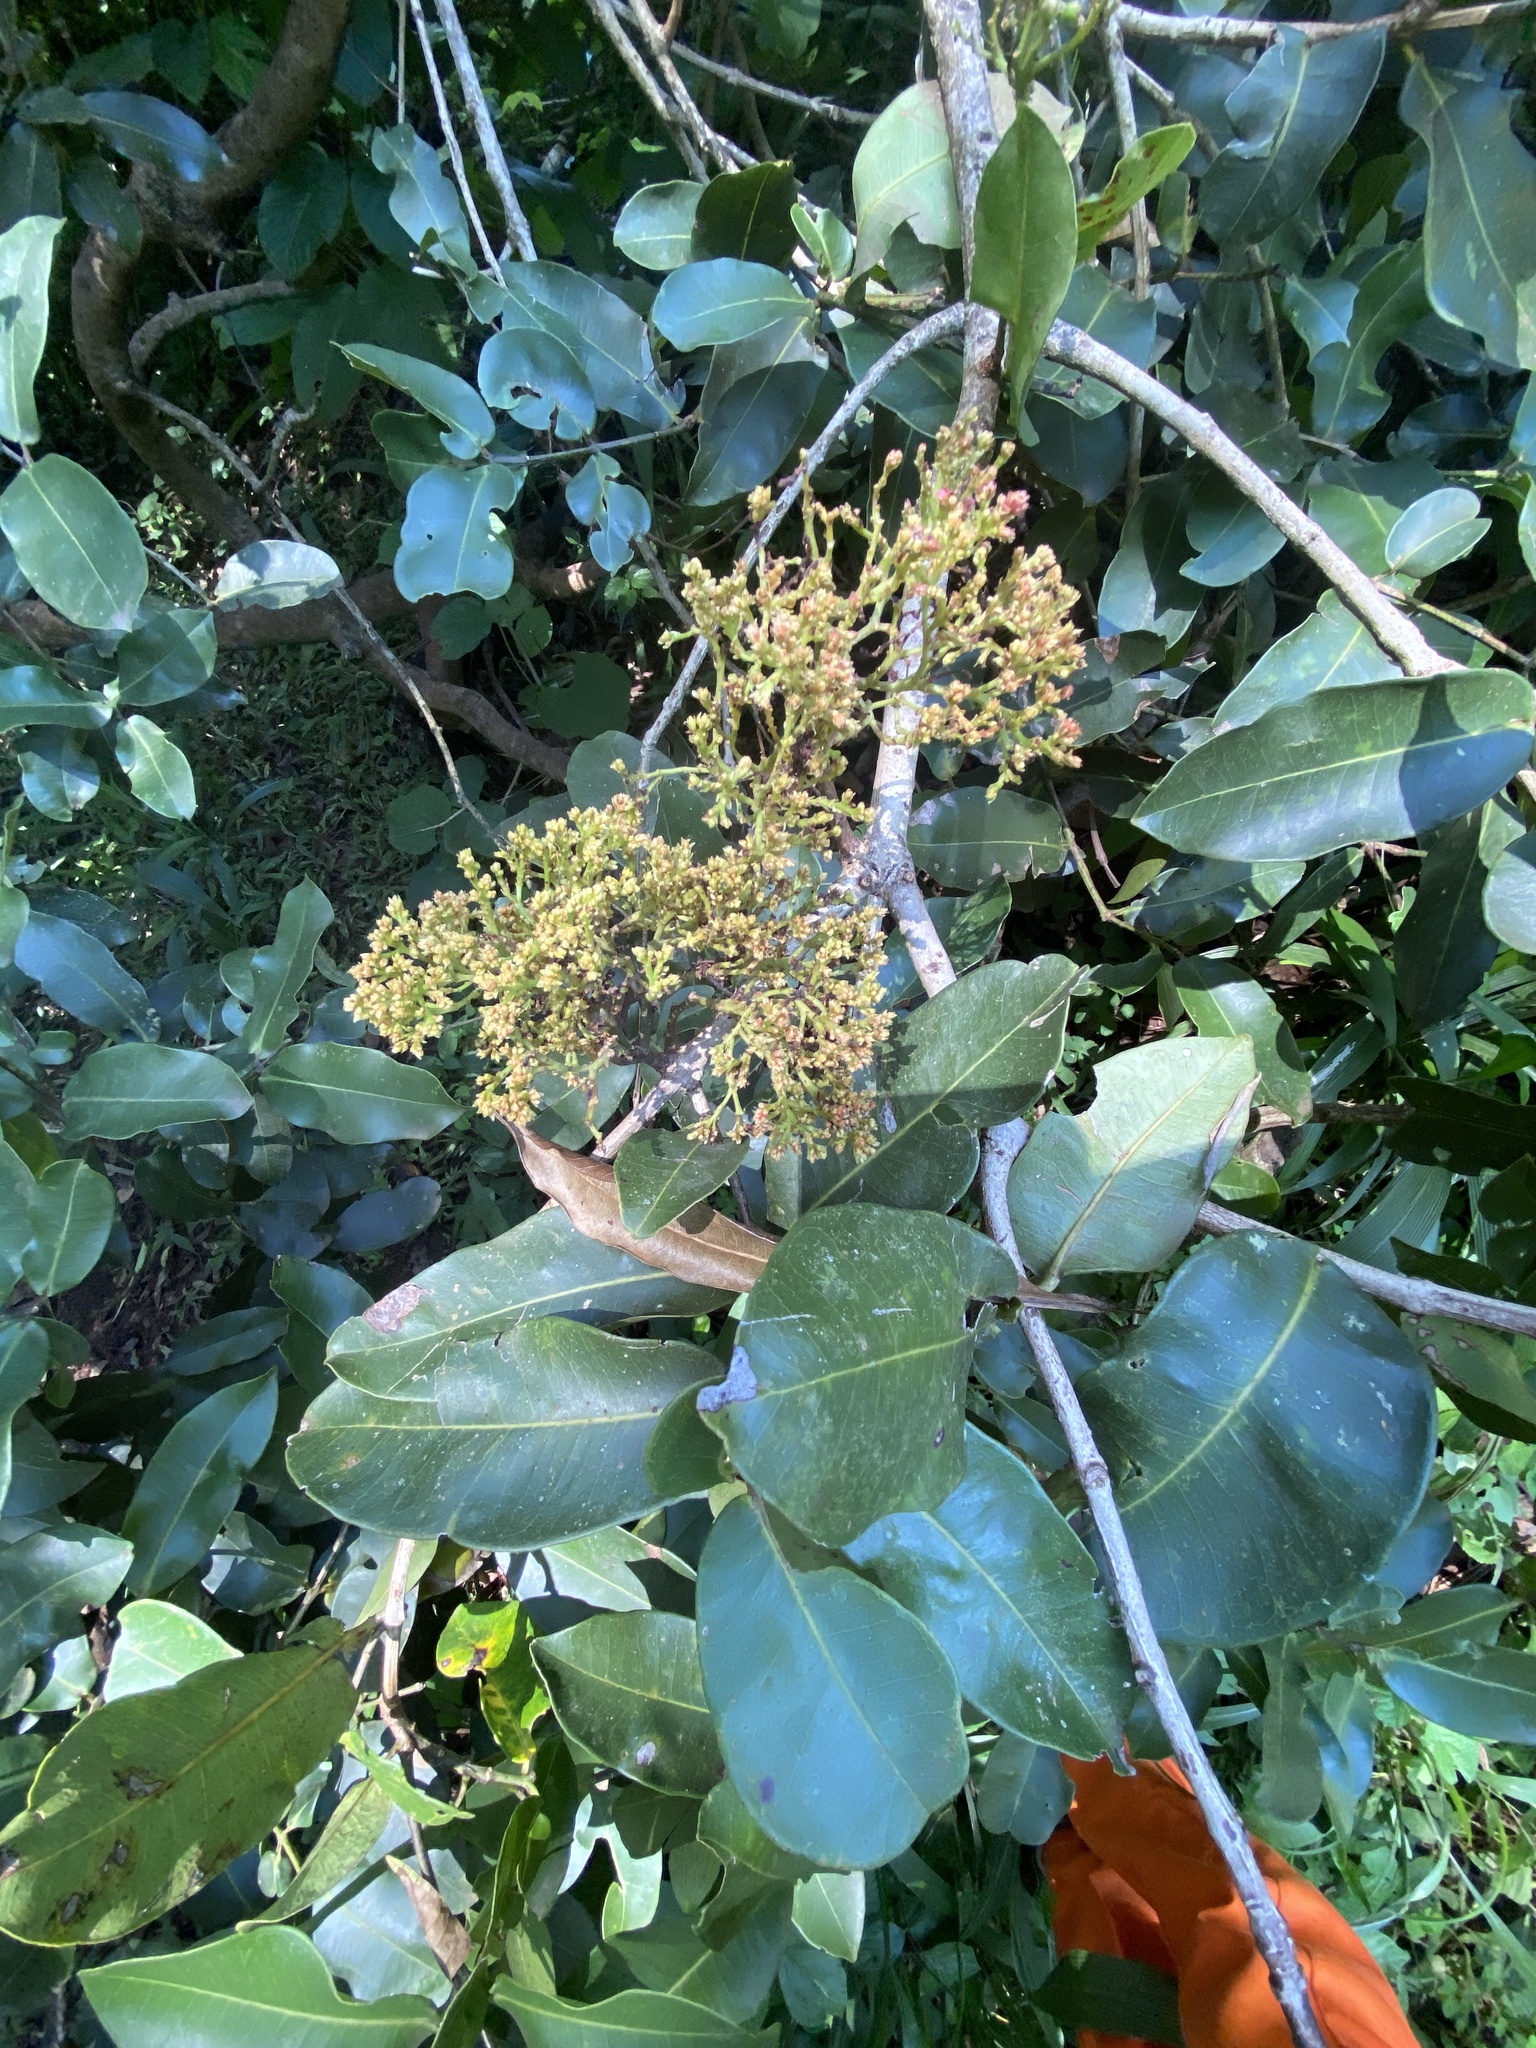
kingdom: Plantae
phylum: Tracheophyta
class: Magnoliopsida
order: Myrtales
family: Myrtaceae
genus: Syzygium
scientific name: Syzygium guineense
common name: Water-pear
